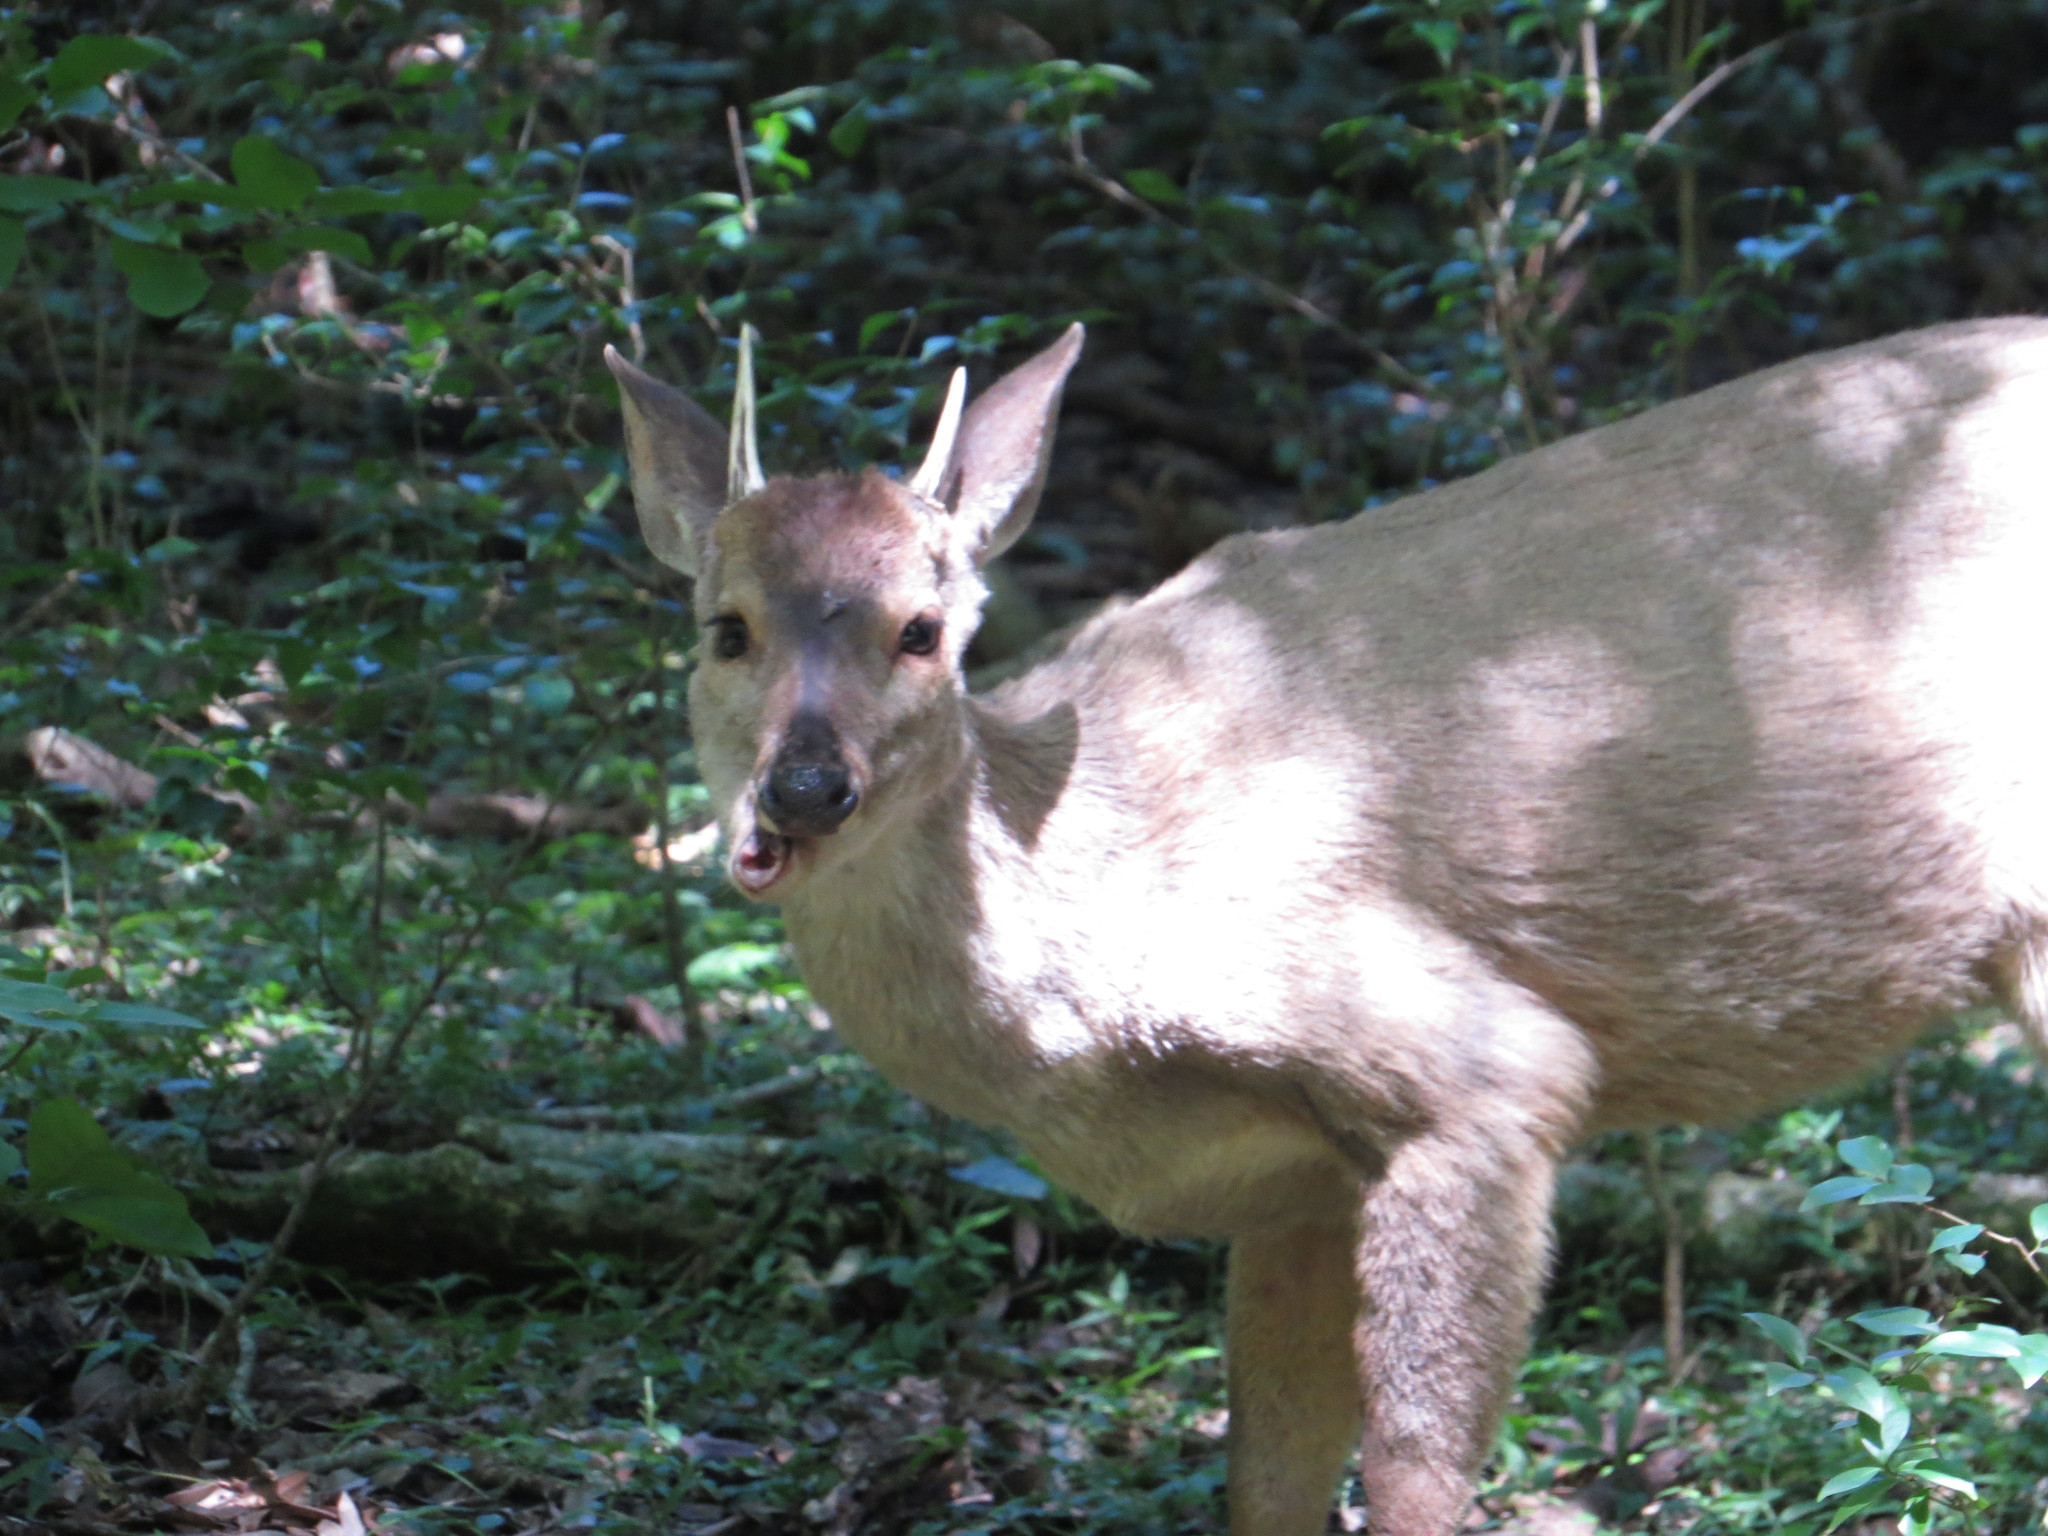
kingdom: Animalia
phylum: Chordata
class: Mammalia
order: Artiodactyla
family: Cervidae
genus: Mazama
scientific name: Mazama gouazoubira
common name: Gray brocket
